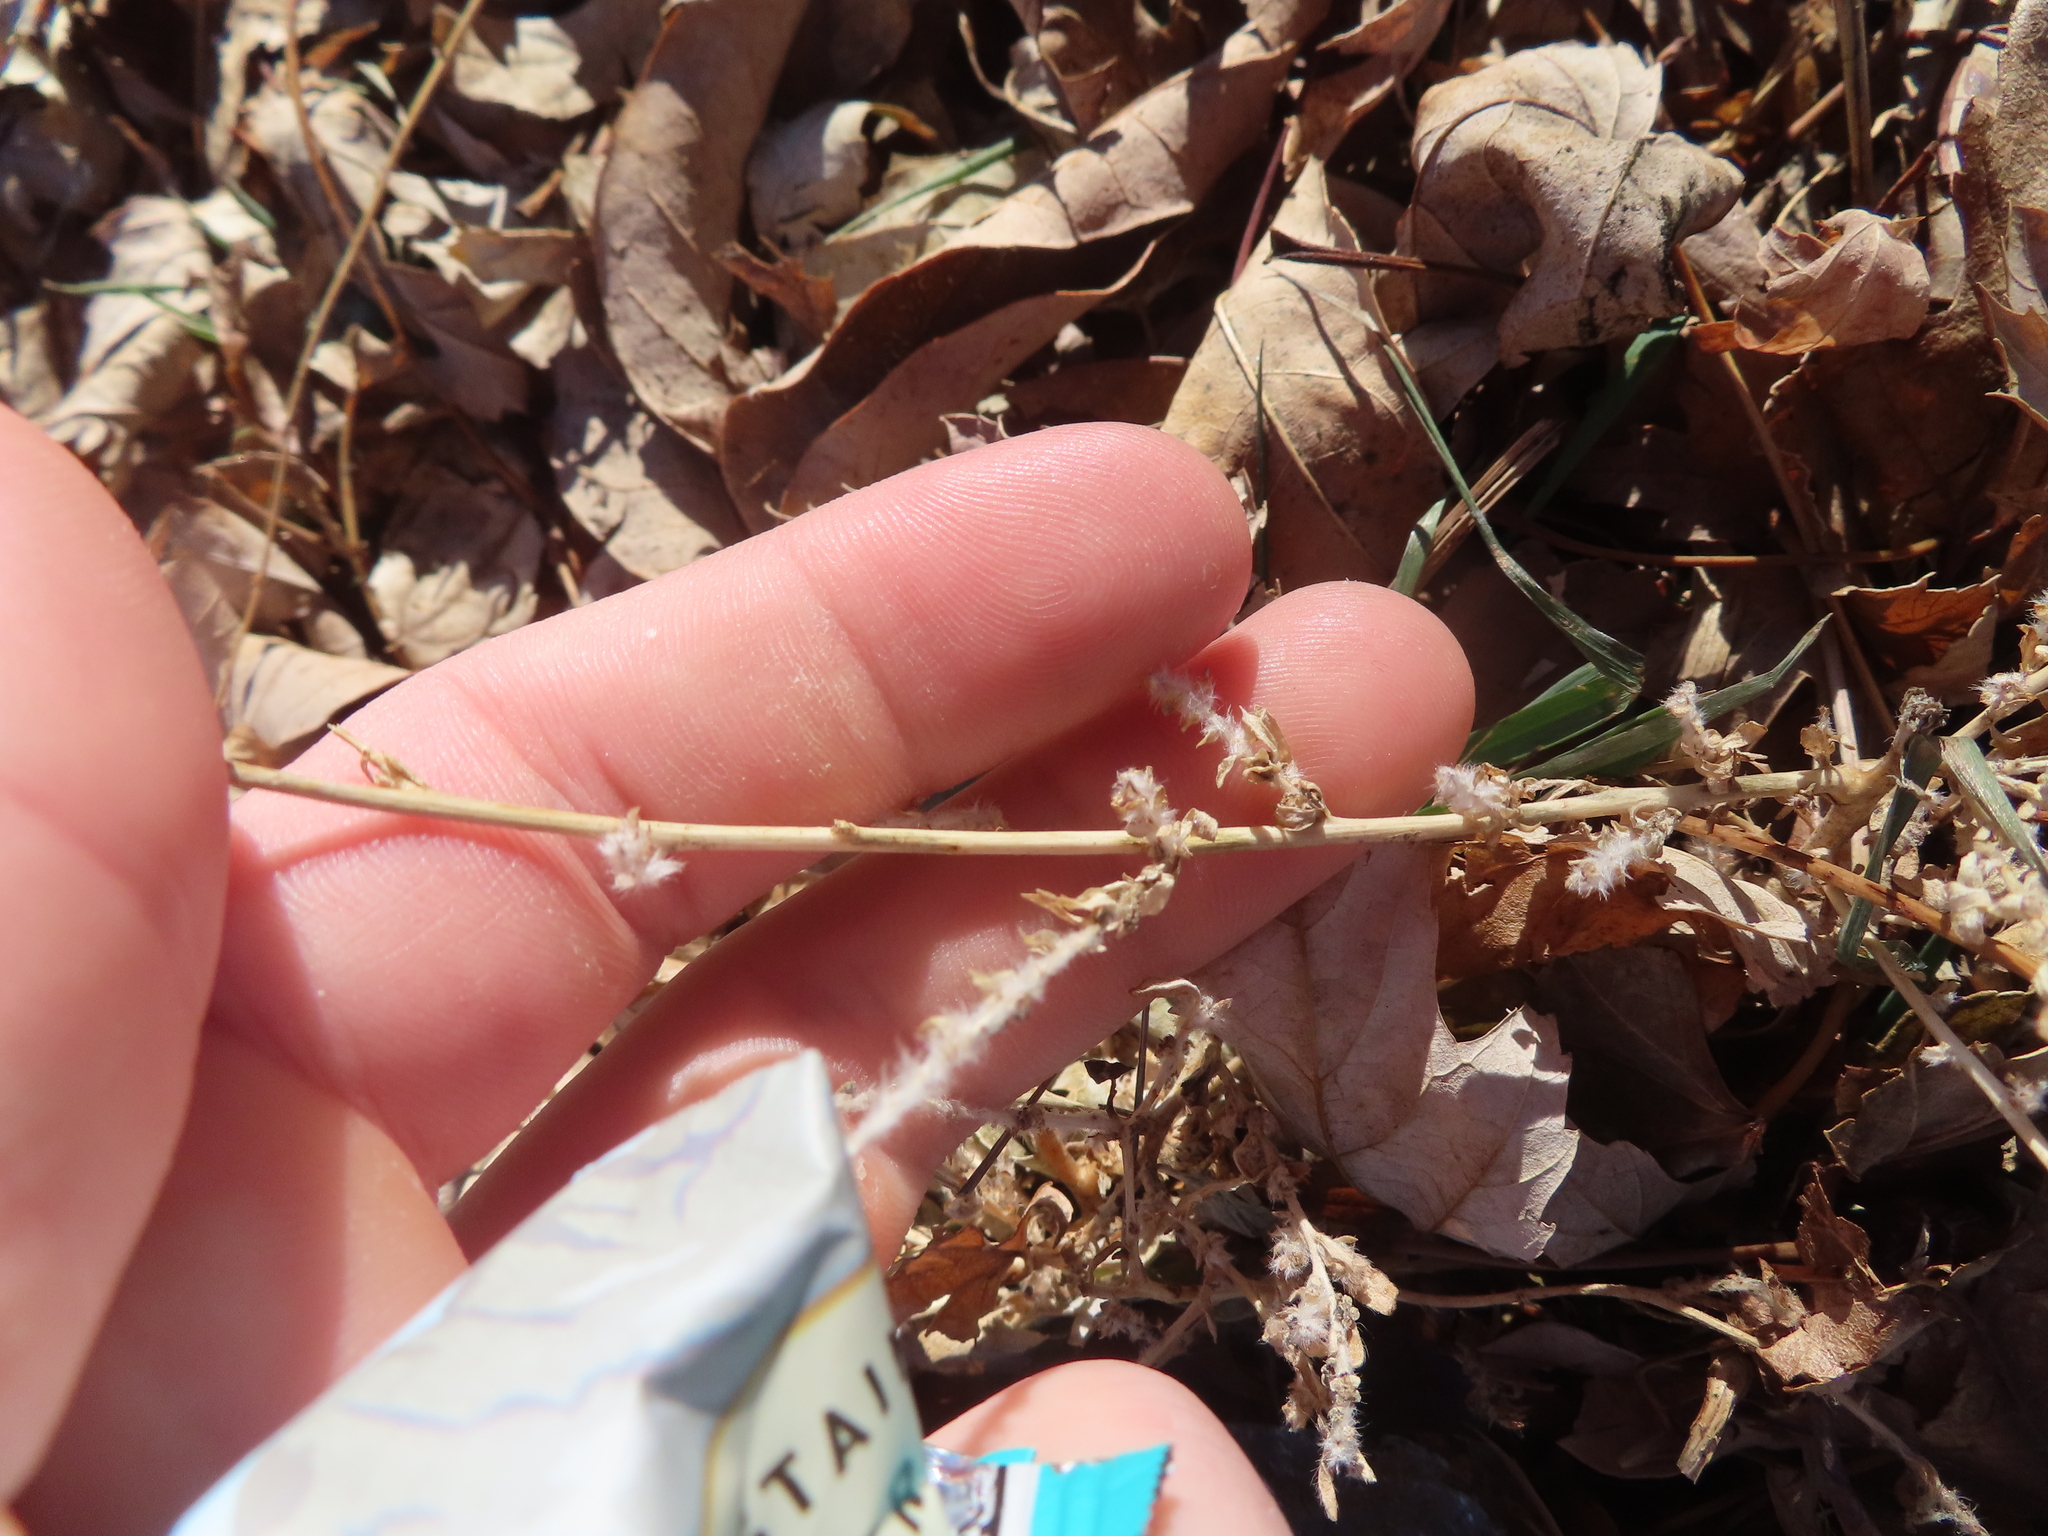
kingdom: Plantae
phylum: Tracheophyta
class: Magnoliopsida
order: Caryophyllales
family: Amaranthaceae
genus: Bassia
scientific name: Bassia scoparia
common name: Belvedere
